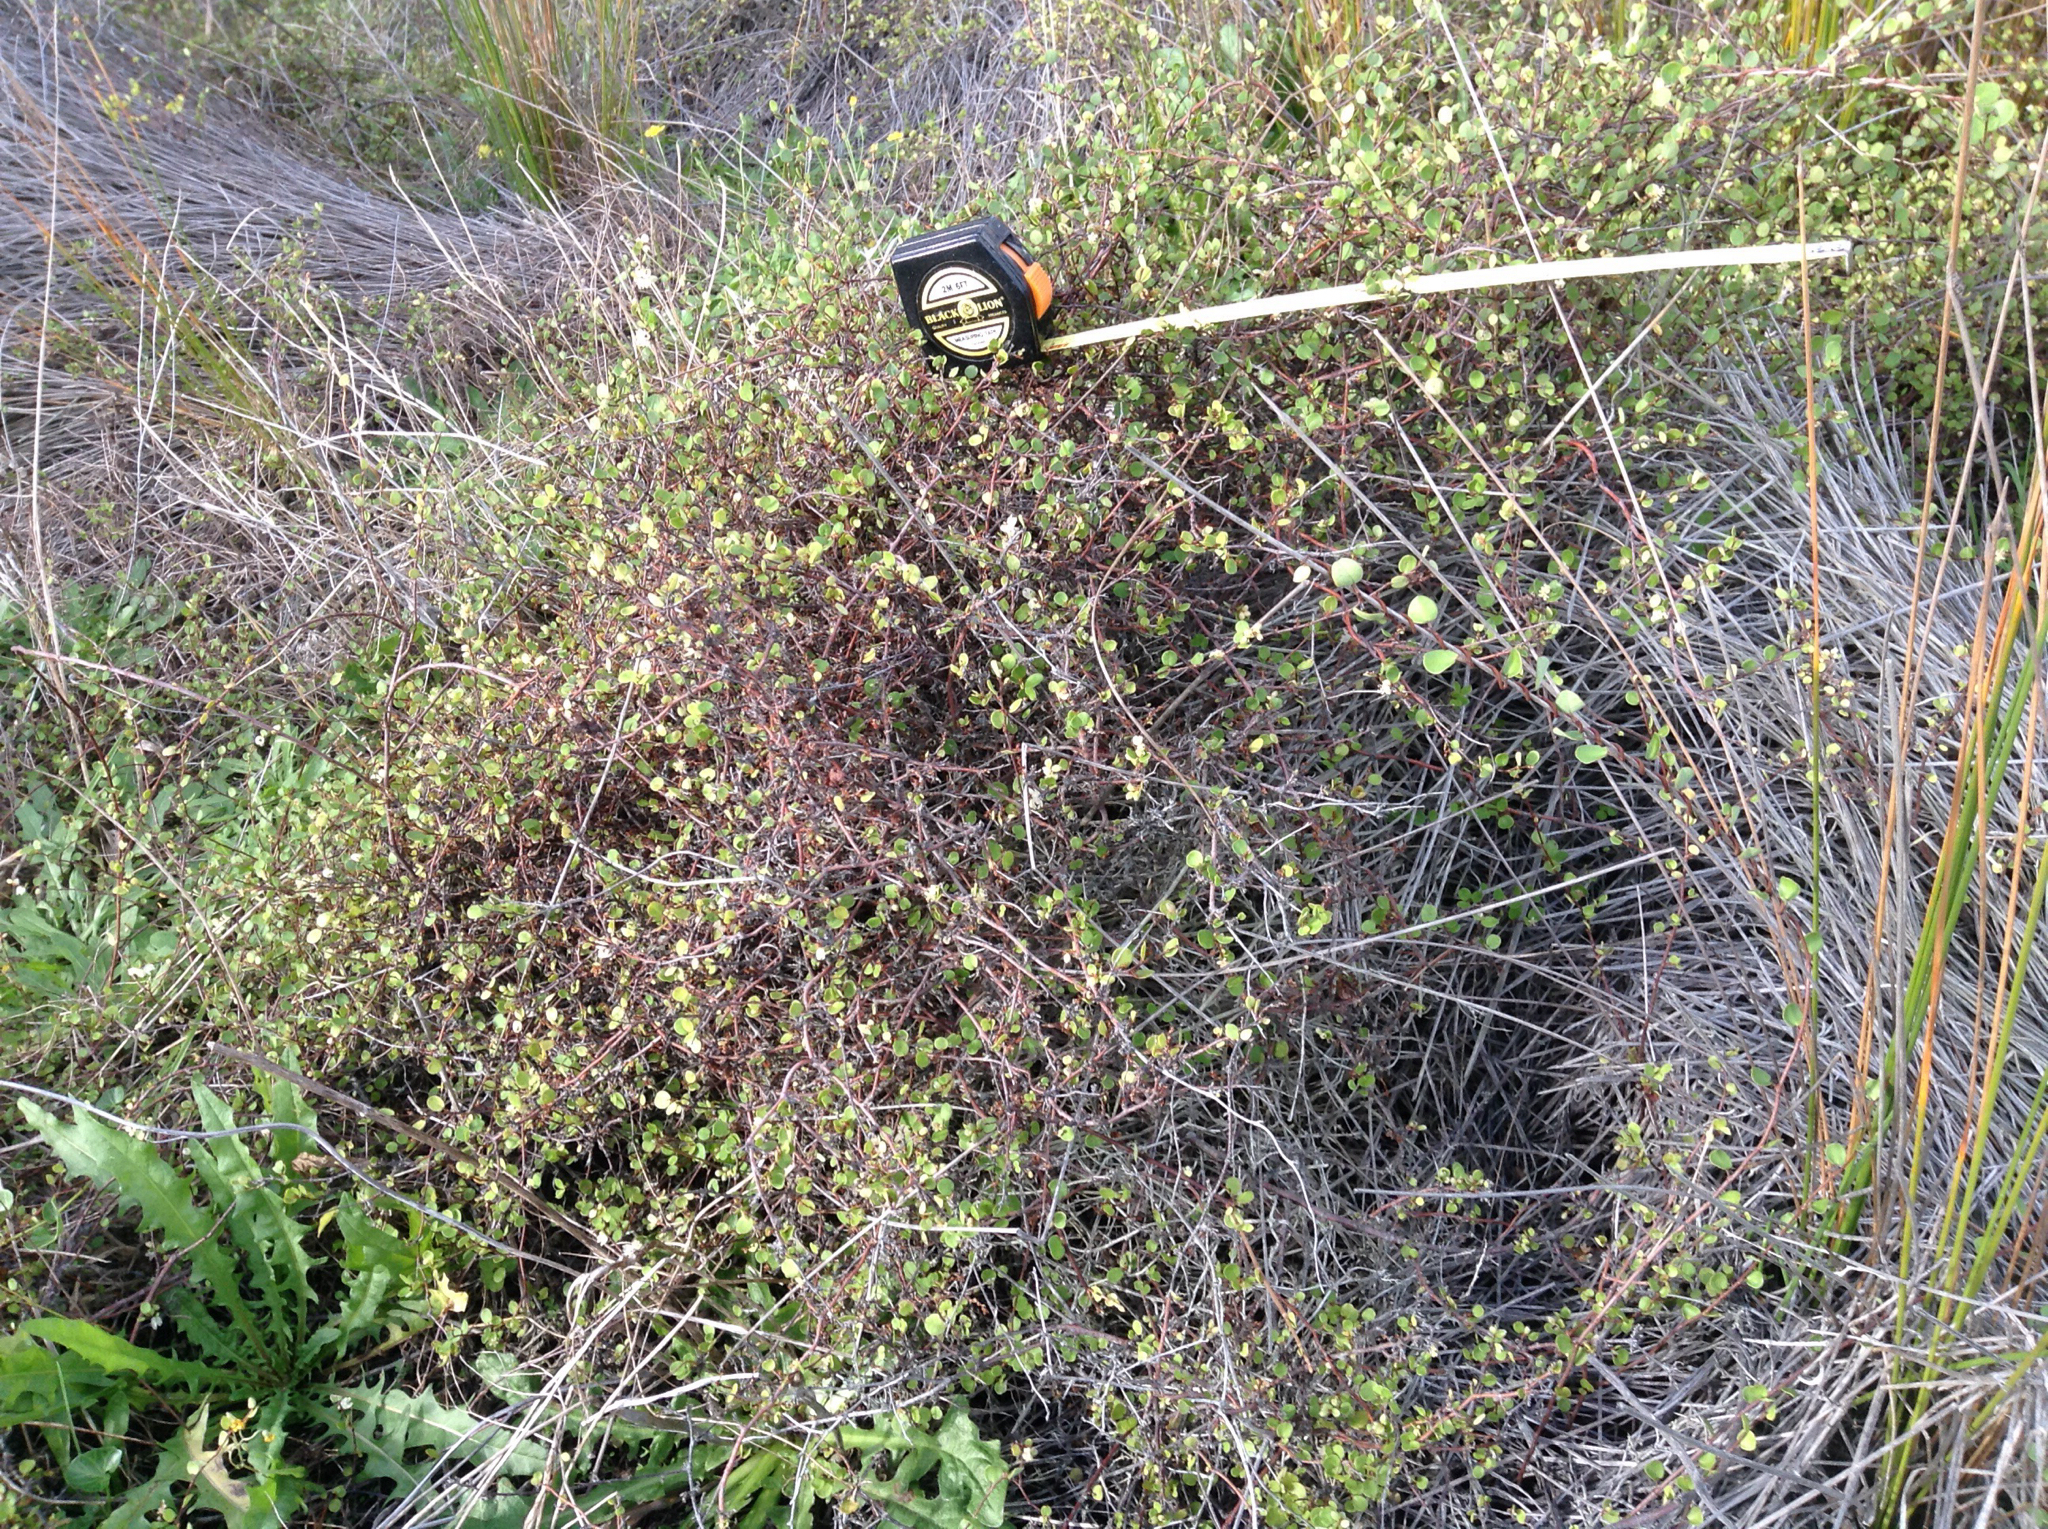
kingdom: Plantae
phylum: Tracheophyta
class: Magnoliopsida
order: Caryophyllales
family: Polygonaceae
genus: Muehlenbeckia
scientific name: Muehlenbeckia complexa
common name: Wireplant
